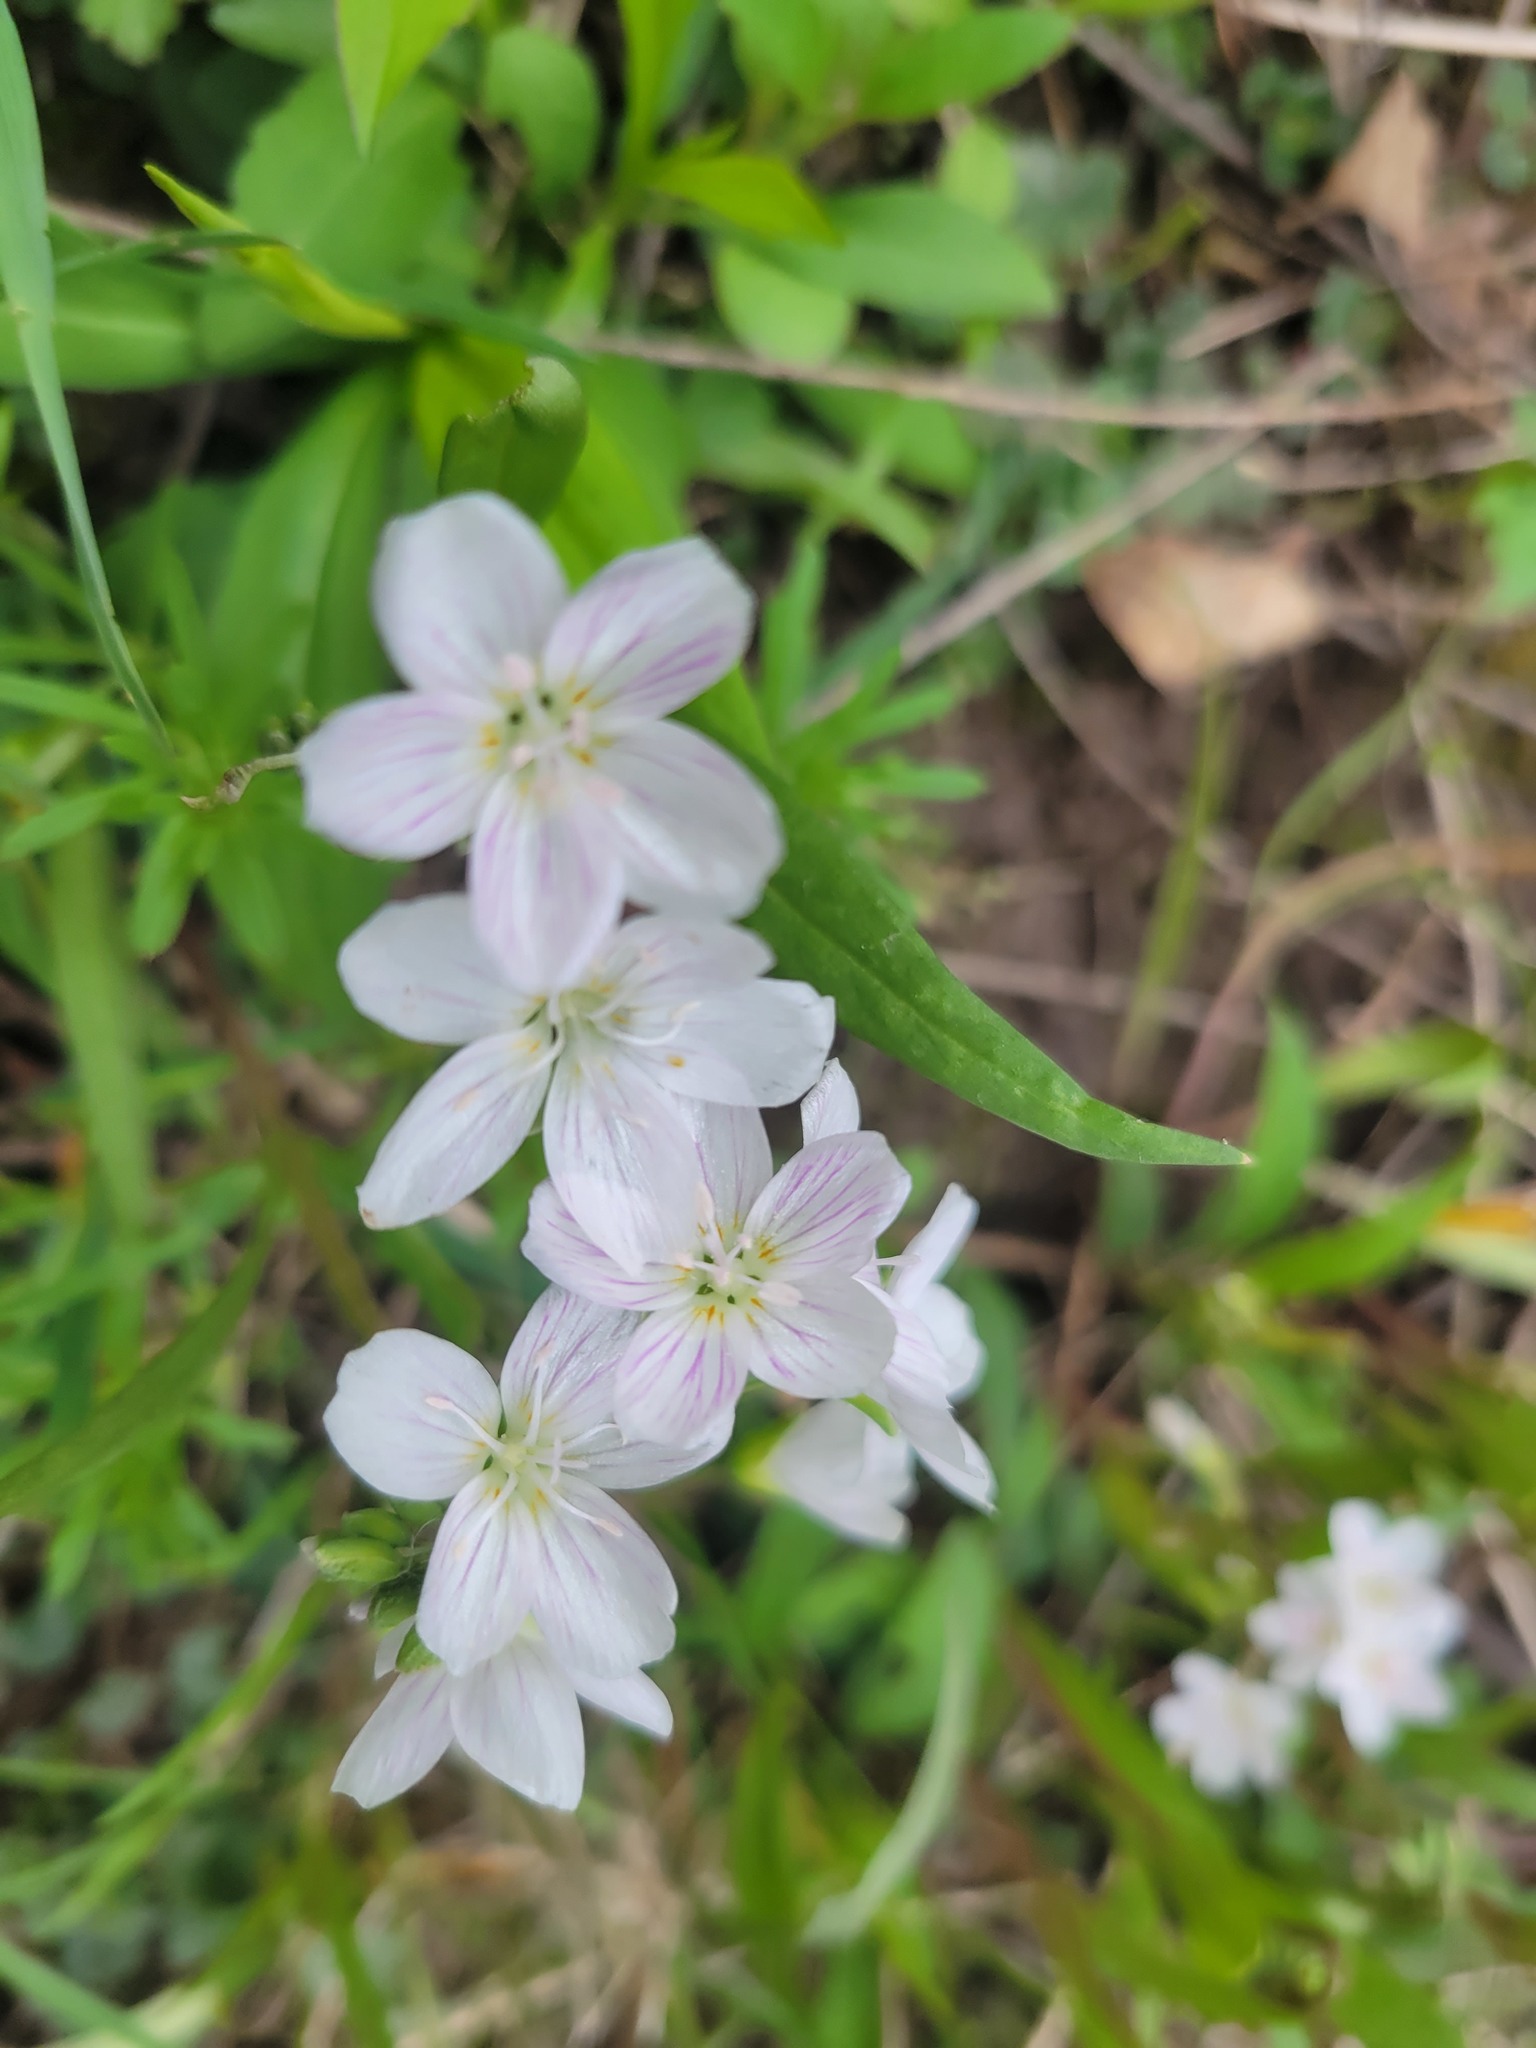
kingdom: Plantae
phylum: Tracheophyta
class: Magnoliopsida
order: Caryophyllales
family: Montiaceae
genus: Claytonia
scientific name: Claytonia virginica
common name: Virginia springbeauty
